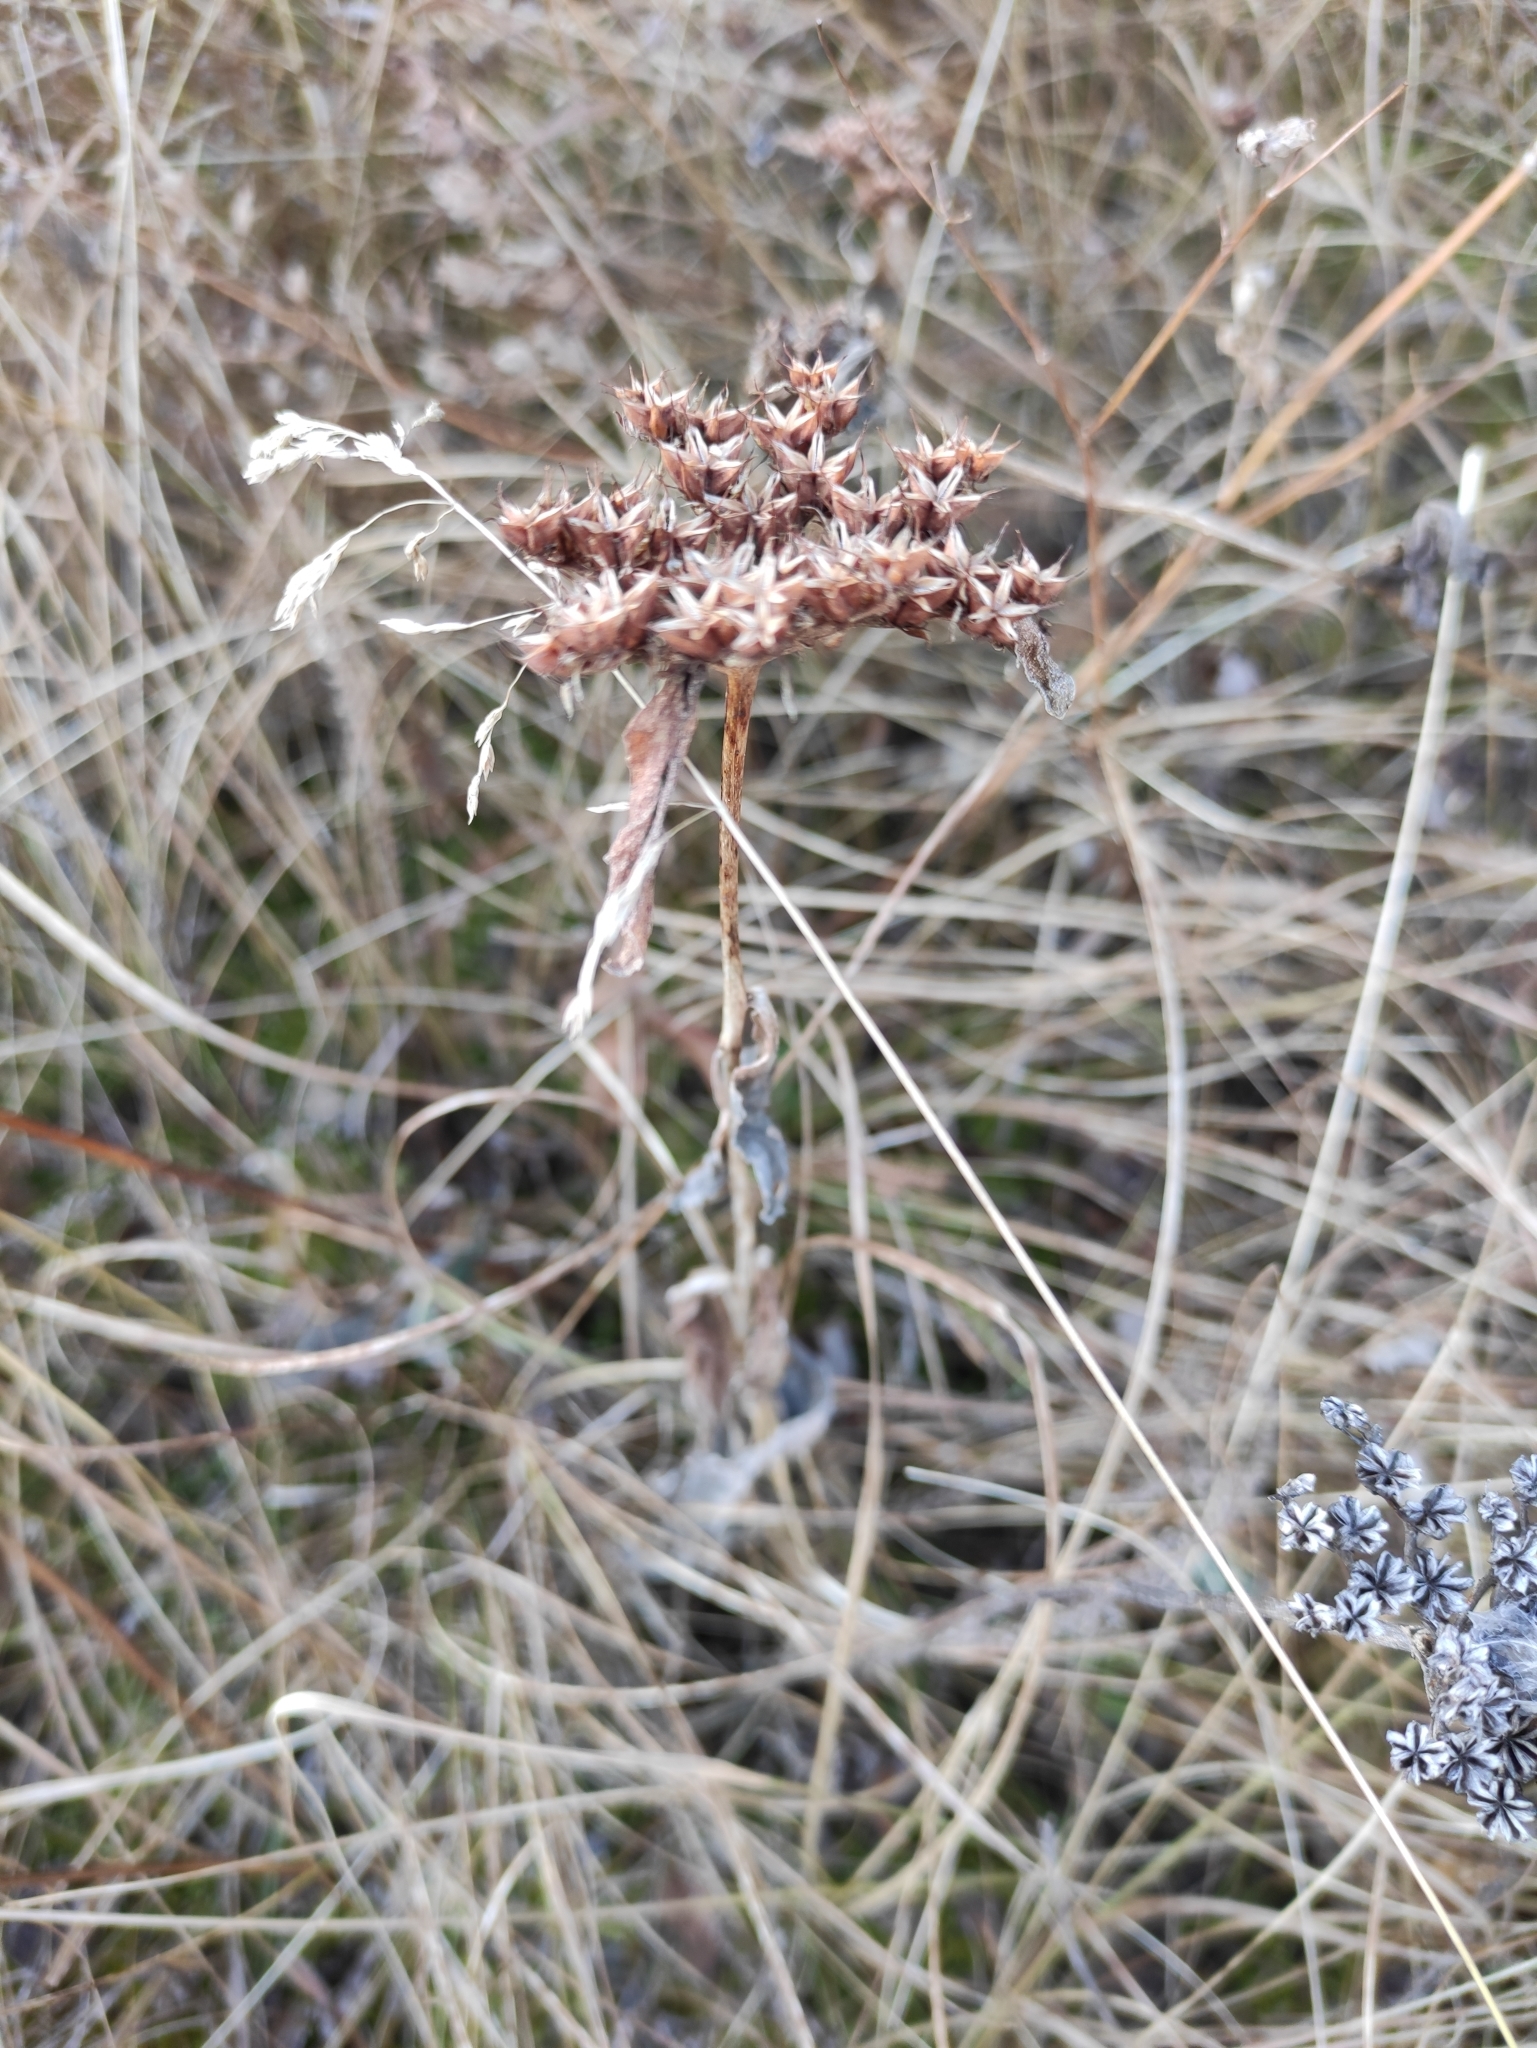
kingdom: Plantae
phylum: Tracheophyta
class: Magnoliopsida
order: Saxifragales
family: Crassulaceae
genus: Phedimus
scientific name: Phedimus aizoon
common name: Orpin aizoon
